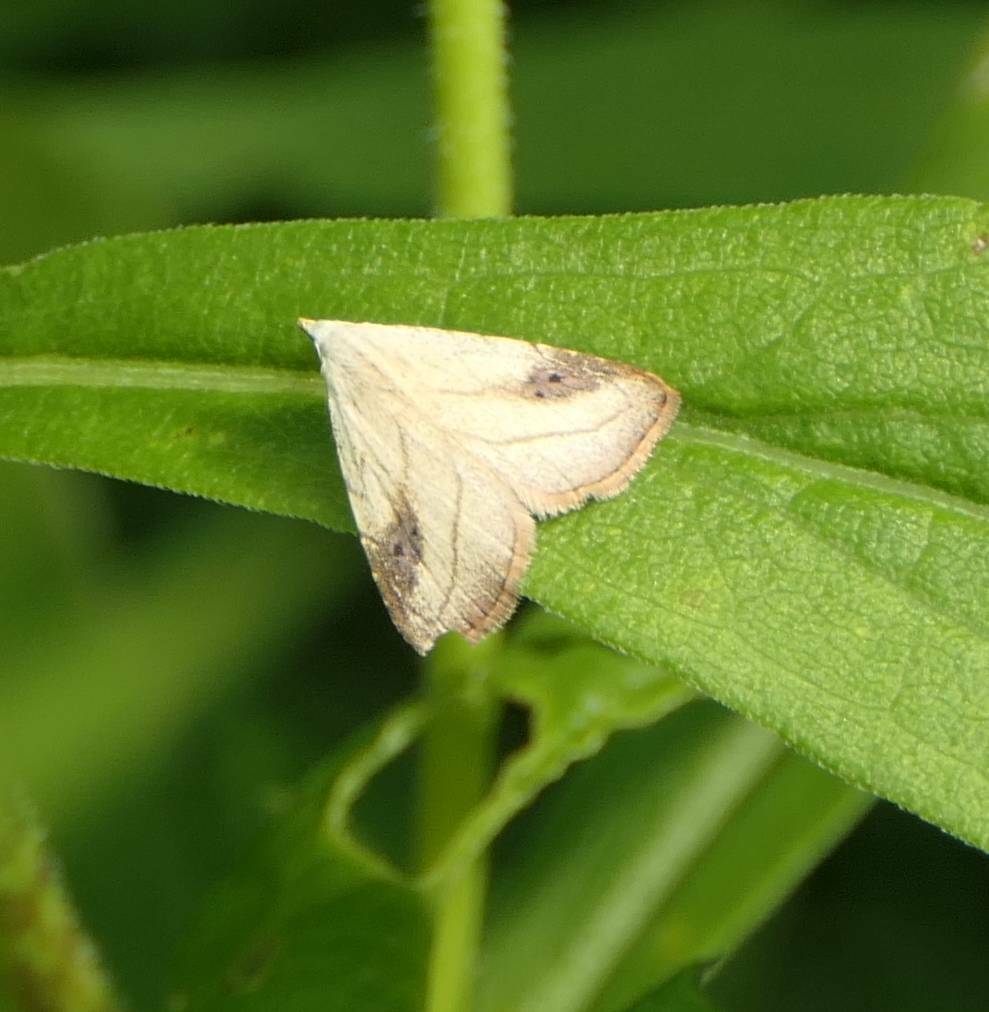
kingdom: Animalia
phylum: Arthropoda
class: Insecta
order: Lepidoptera
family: Erebidae
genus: Rivula
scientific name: Rivula propinqualis
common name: Spotted grass moth
